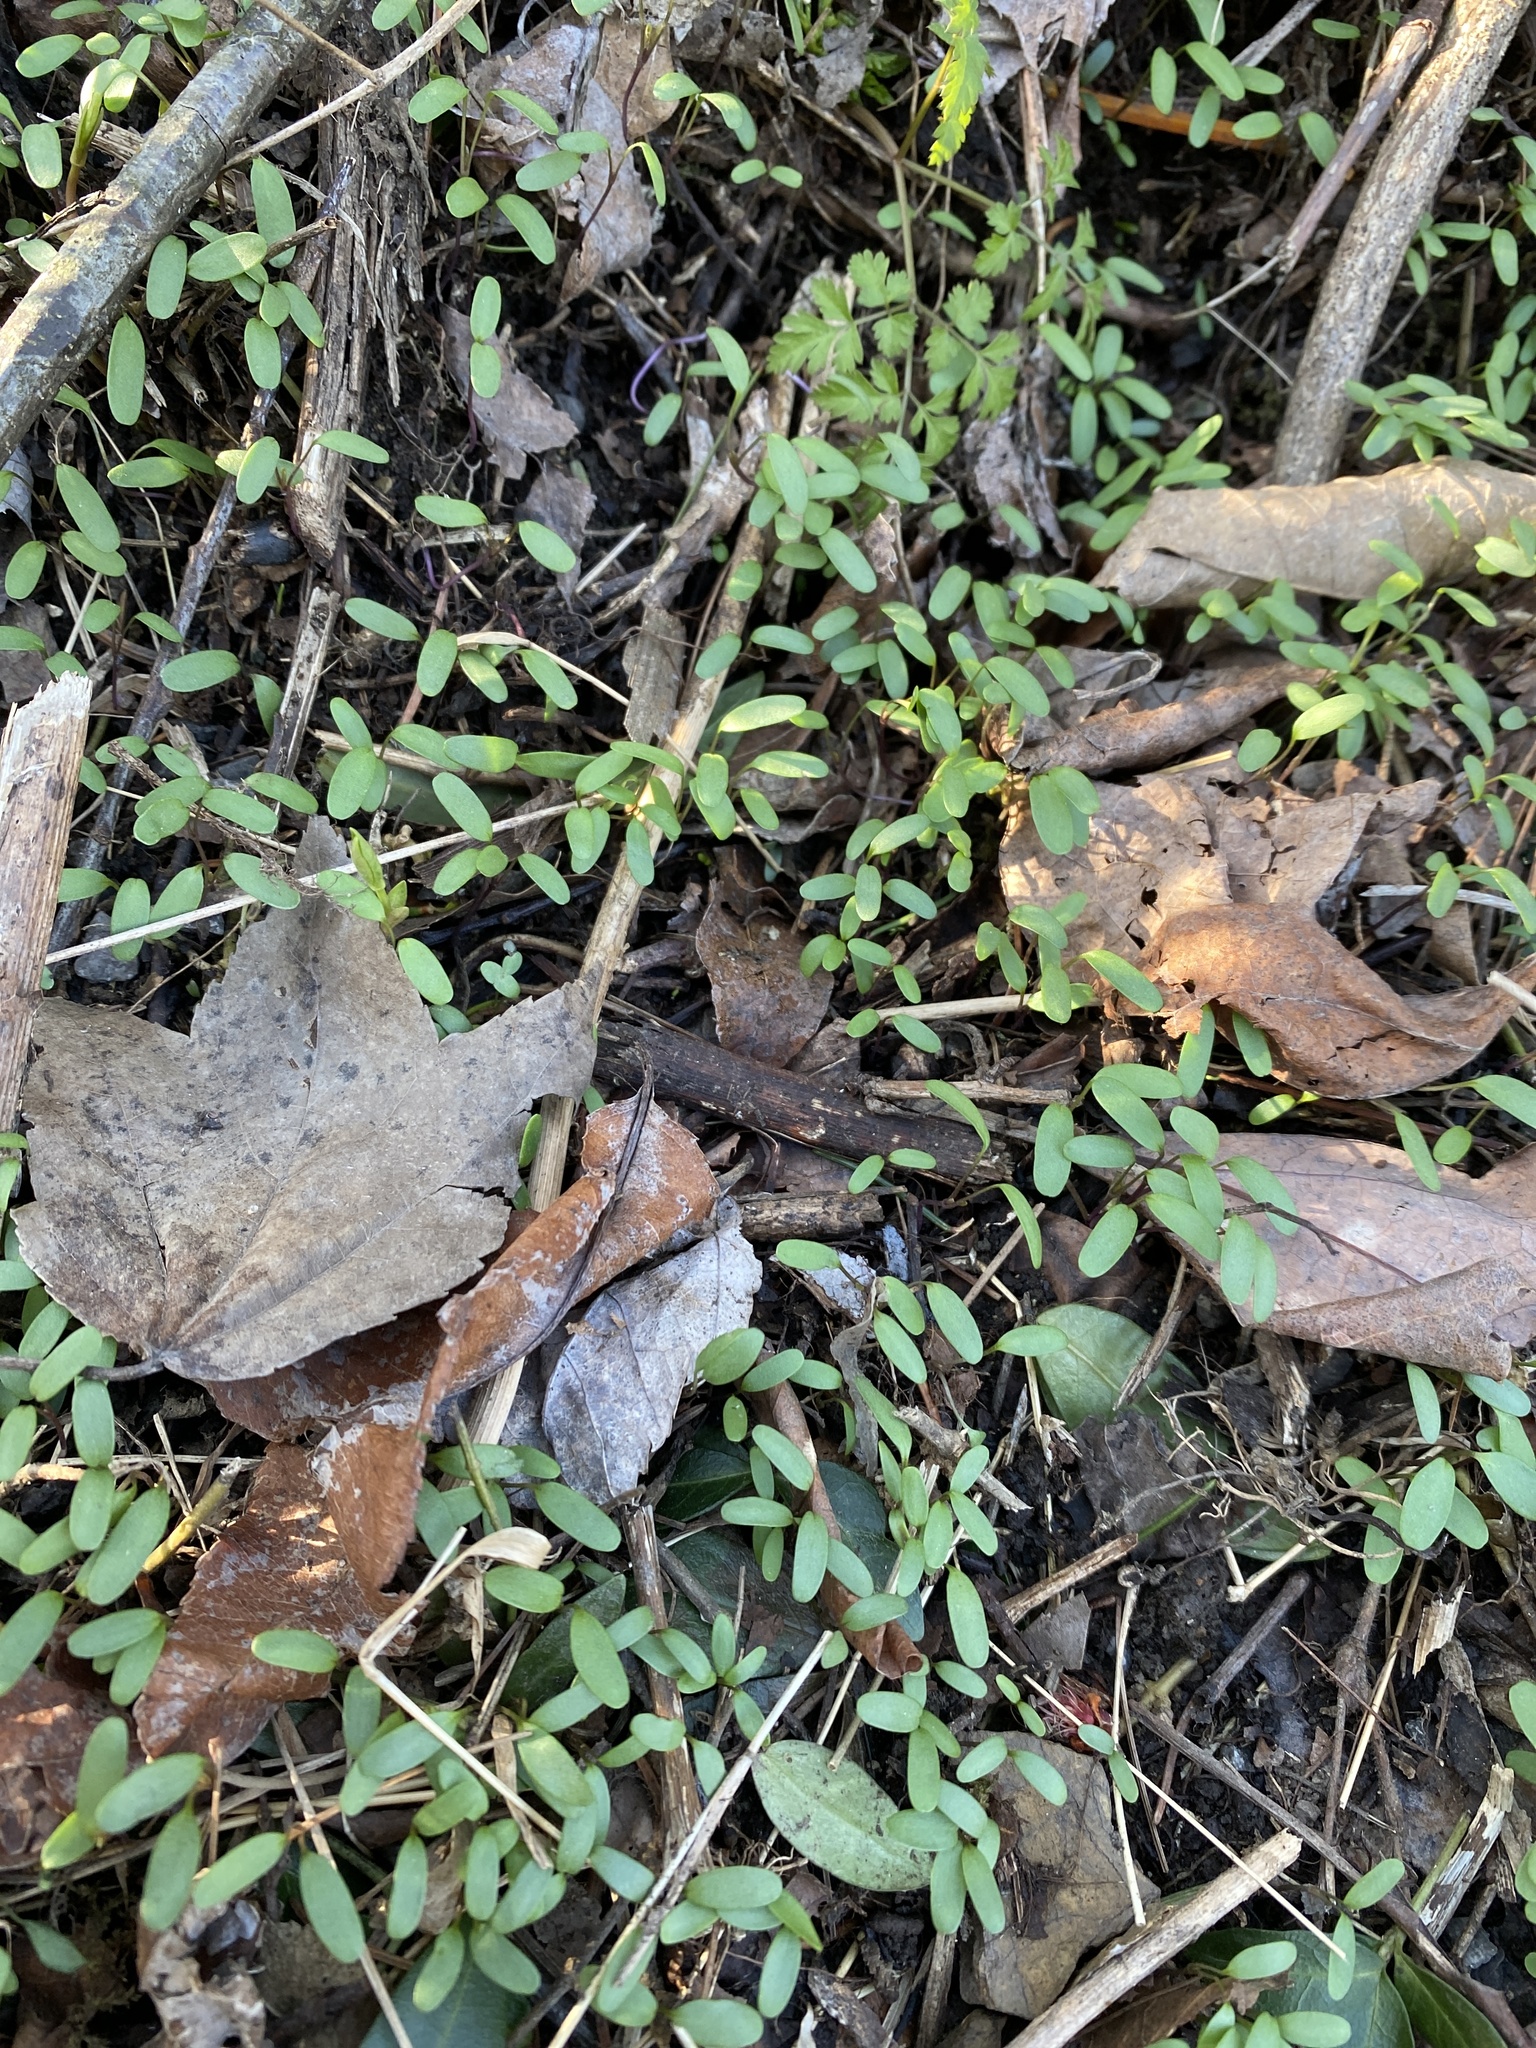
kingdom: Plantae
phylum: Tracheophyta
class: Magnoliopsida
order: Brassicales
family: Brassicaceae
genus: Alliaria
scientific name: Alliaria petiolata
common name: Garlic mustard
